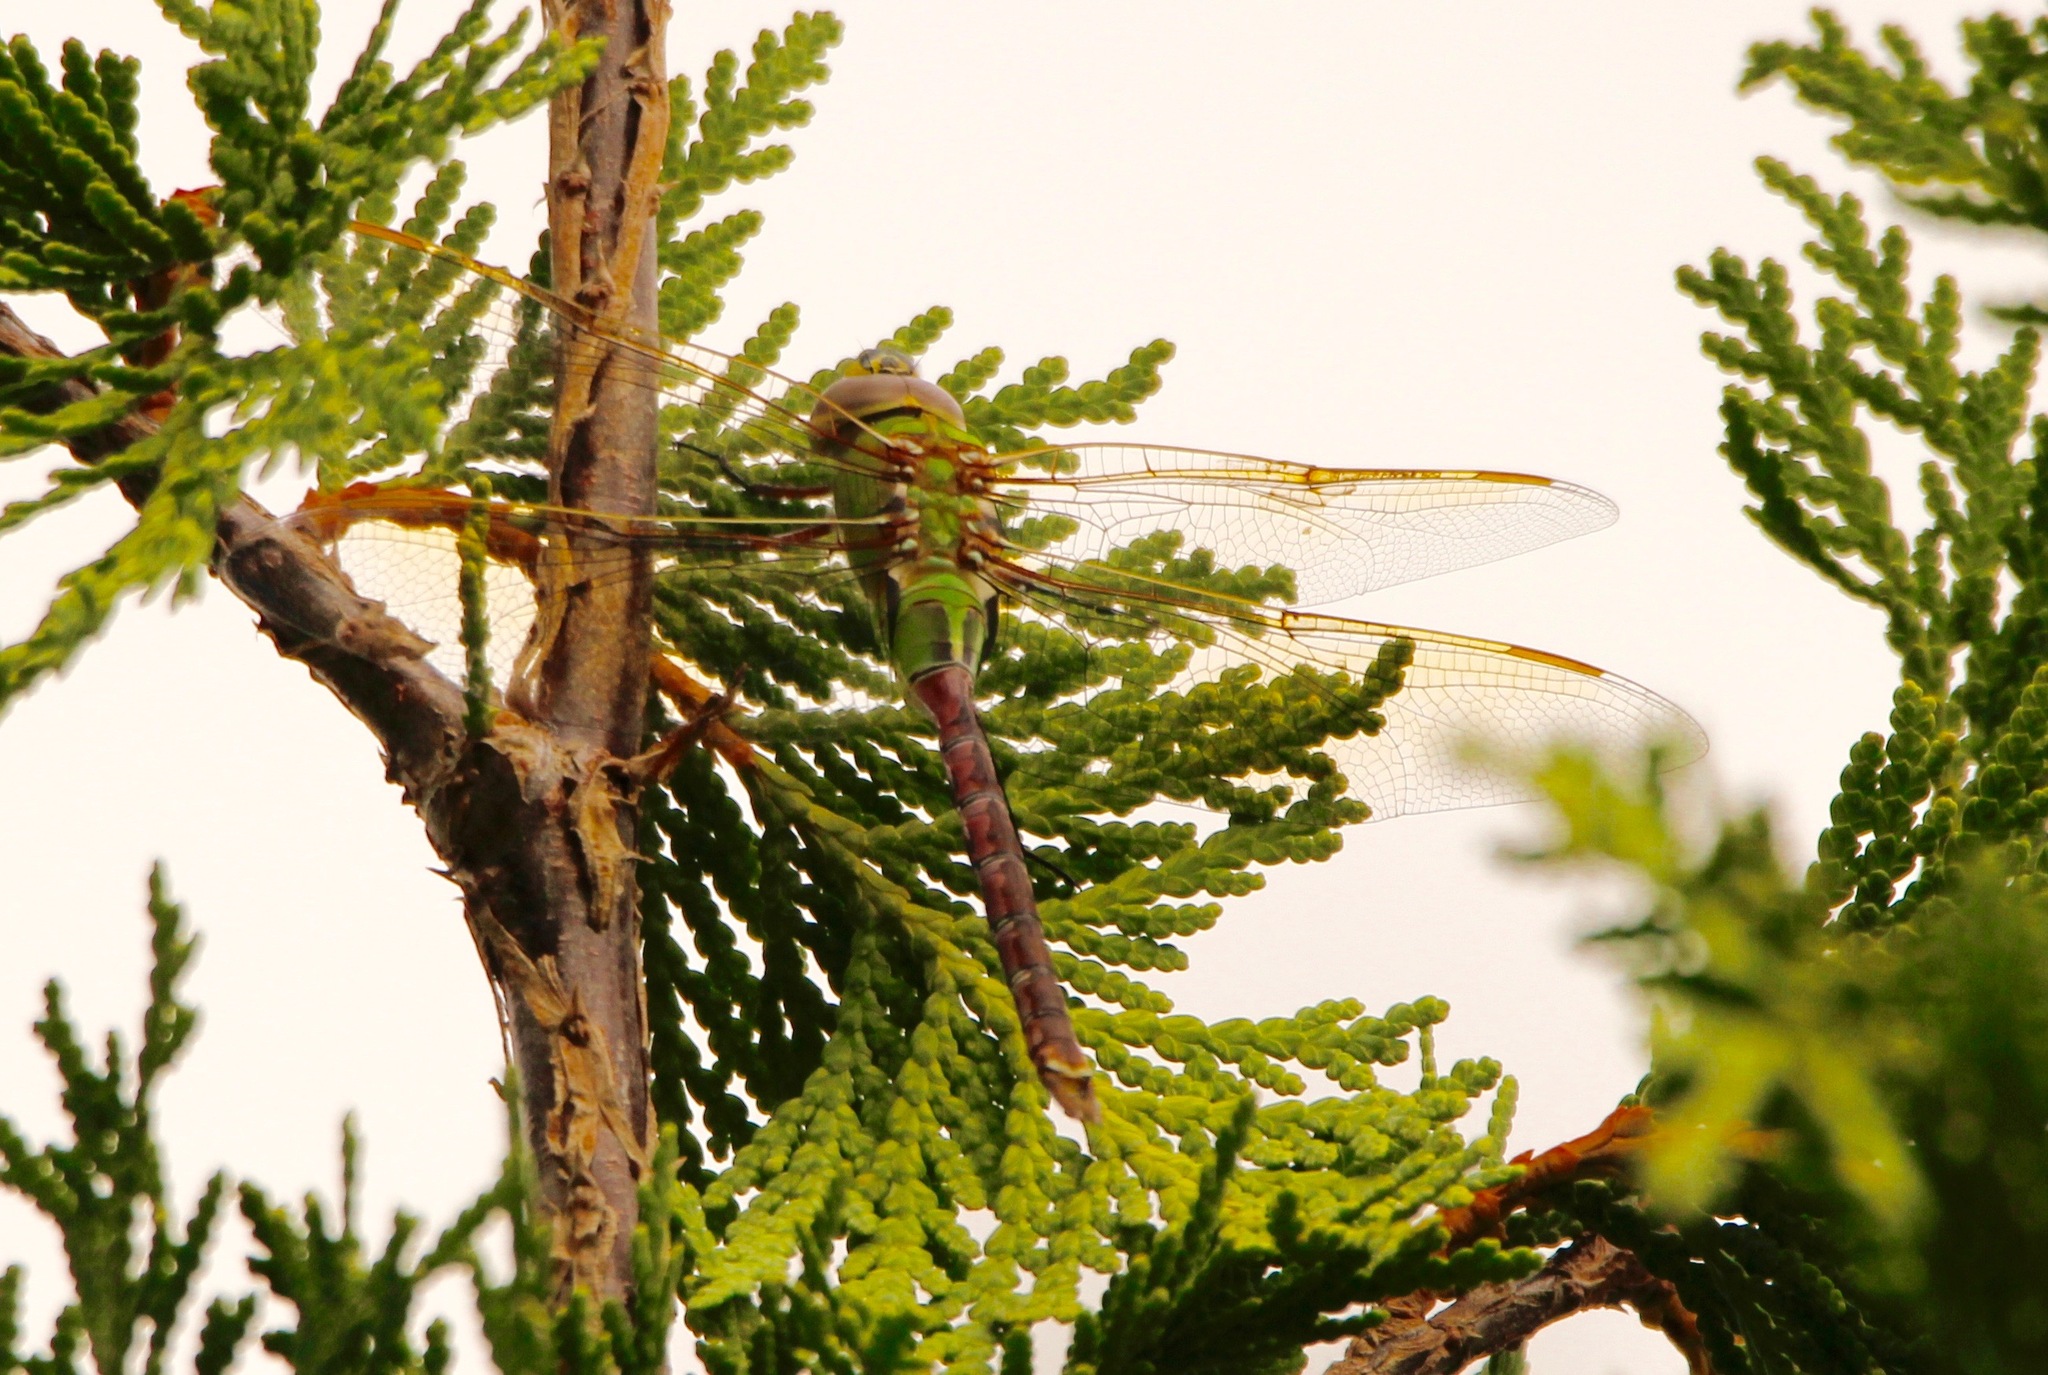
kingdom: Animalia
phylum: Arthropoda
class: Insecta
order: Odonata
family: Aeshnidae
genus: Anax
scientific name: Anax junius
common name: Common green darner
